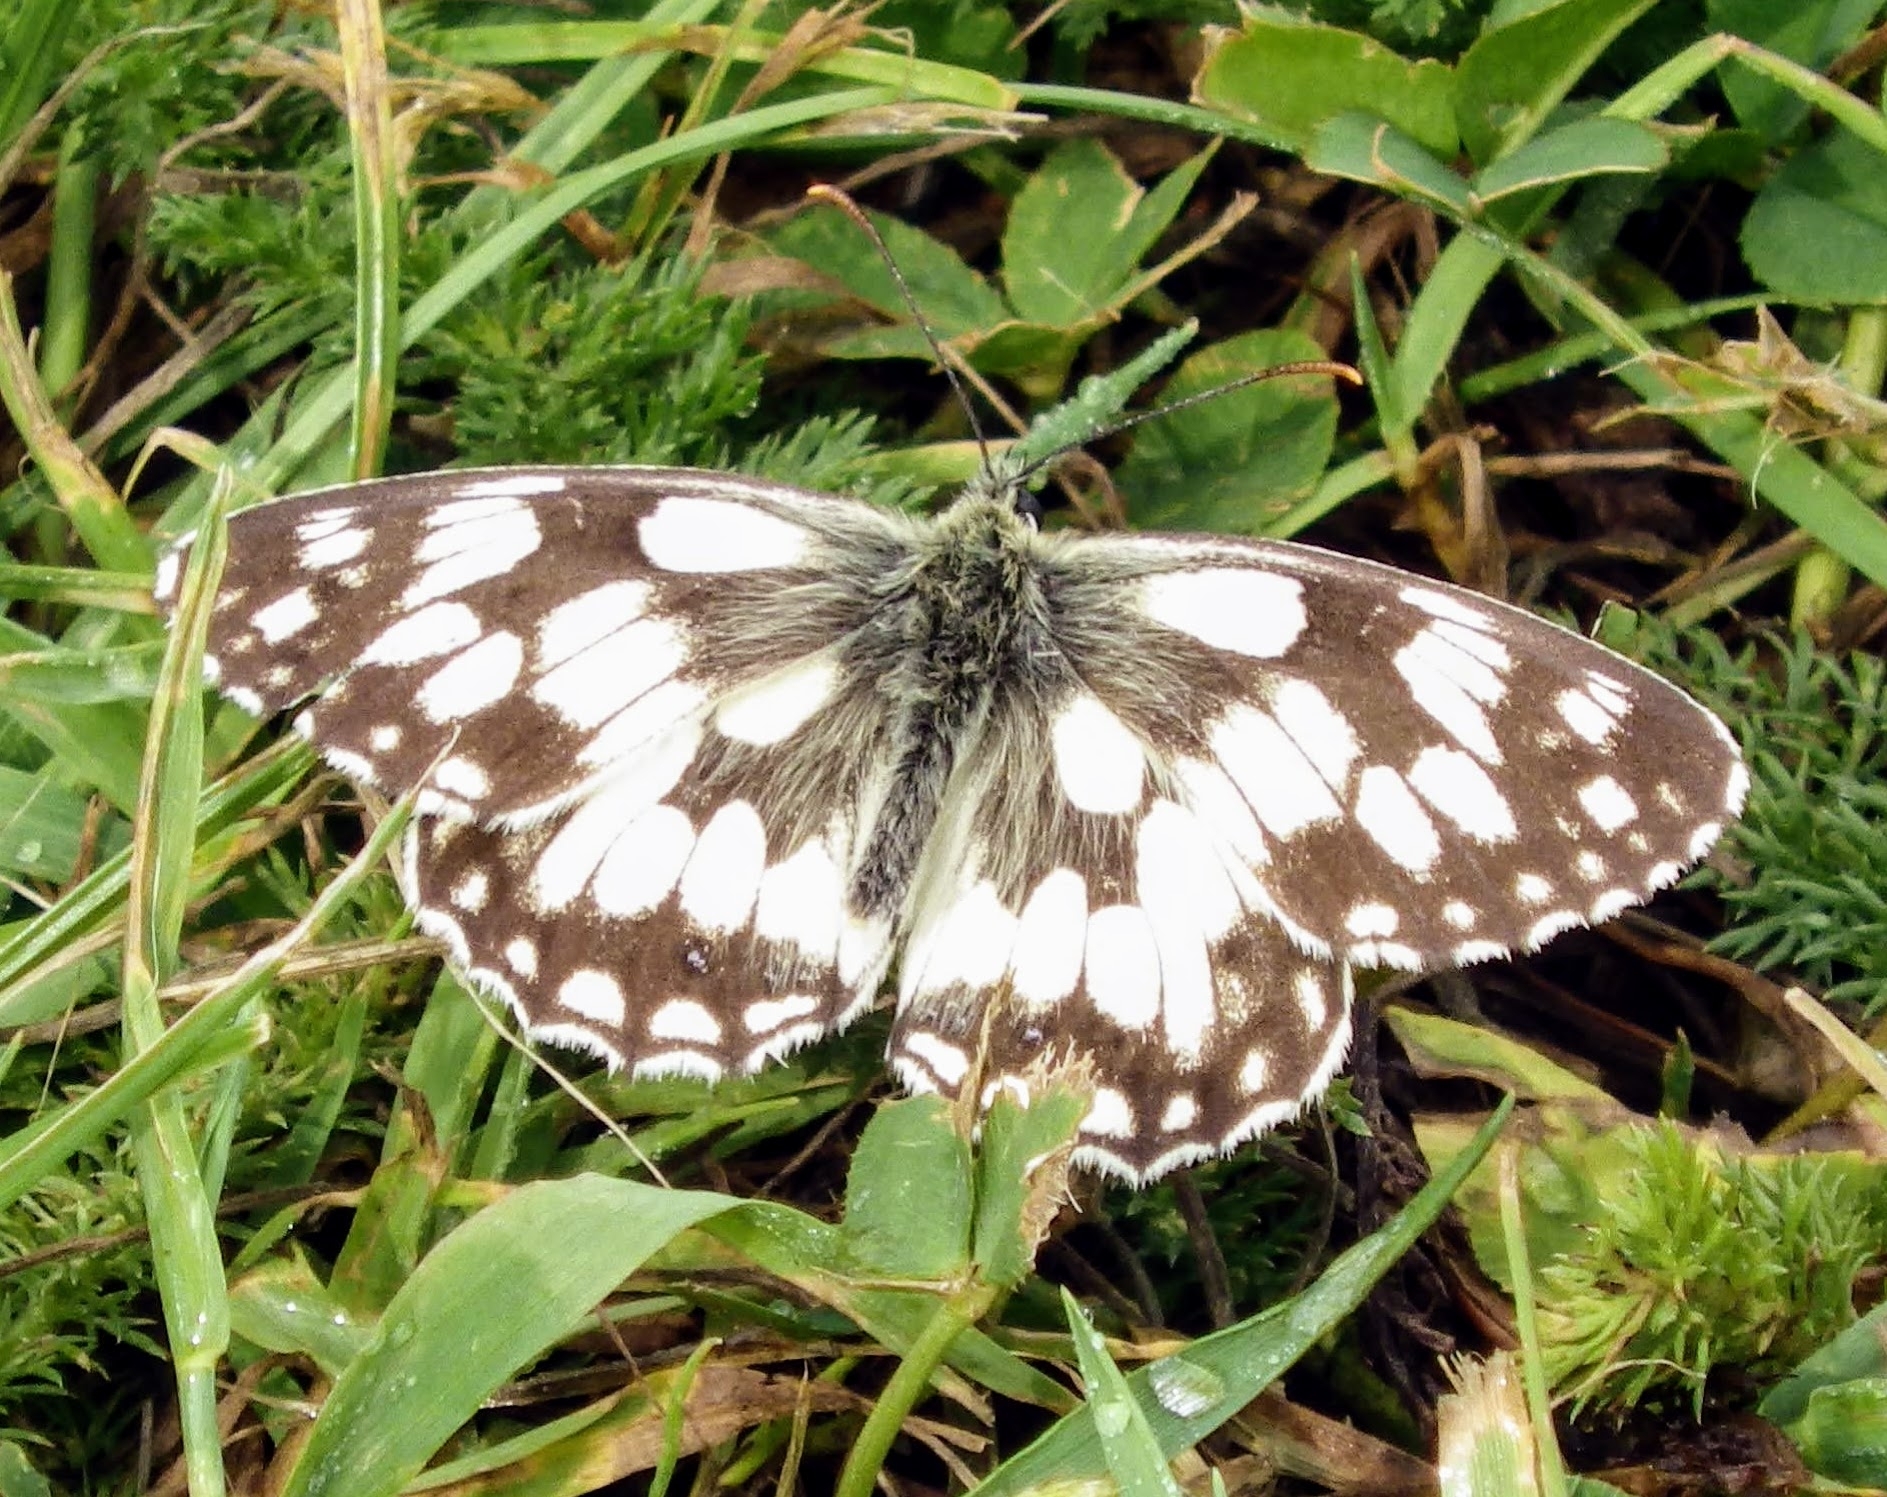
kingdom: Animalia
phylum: Arthropoda
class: Insecta
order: Lepidoptera
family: Nymphalidae
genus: Melanargia
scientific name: Melanargia galathea
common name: Marbled white
